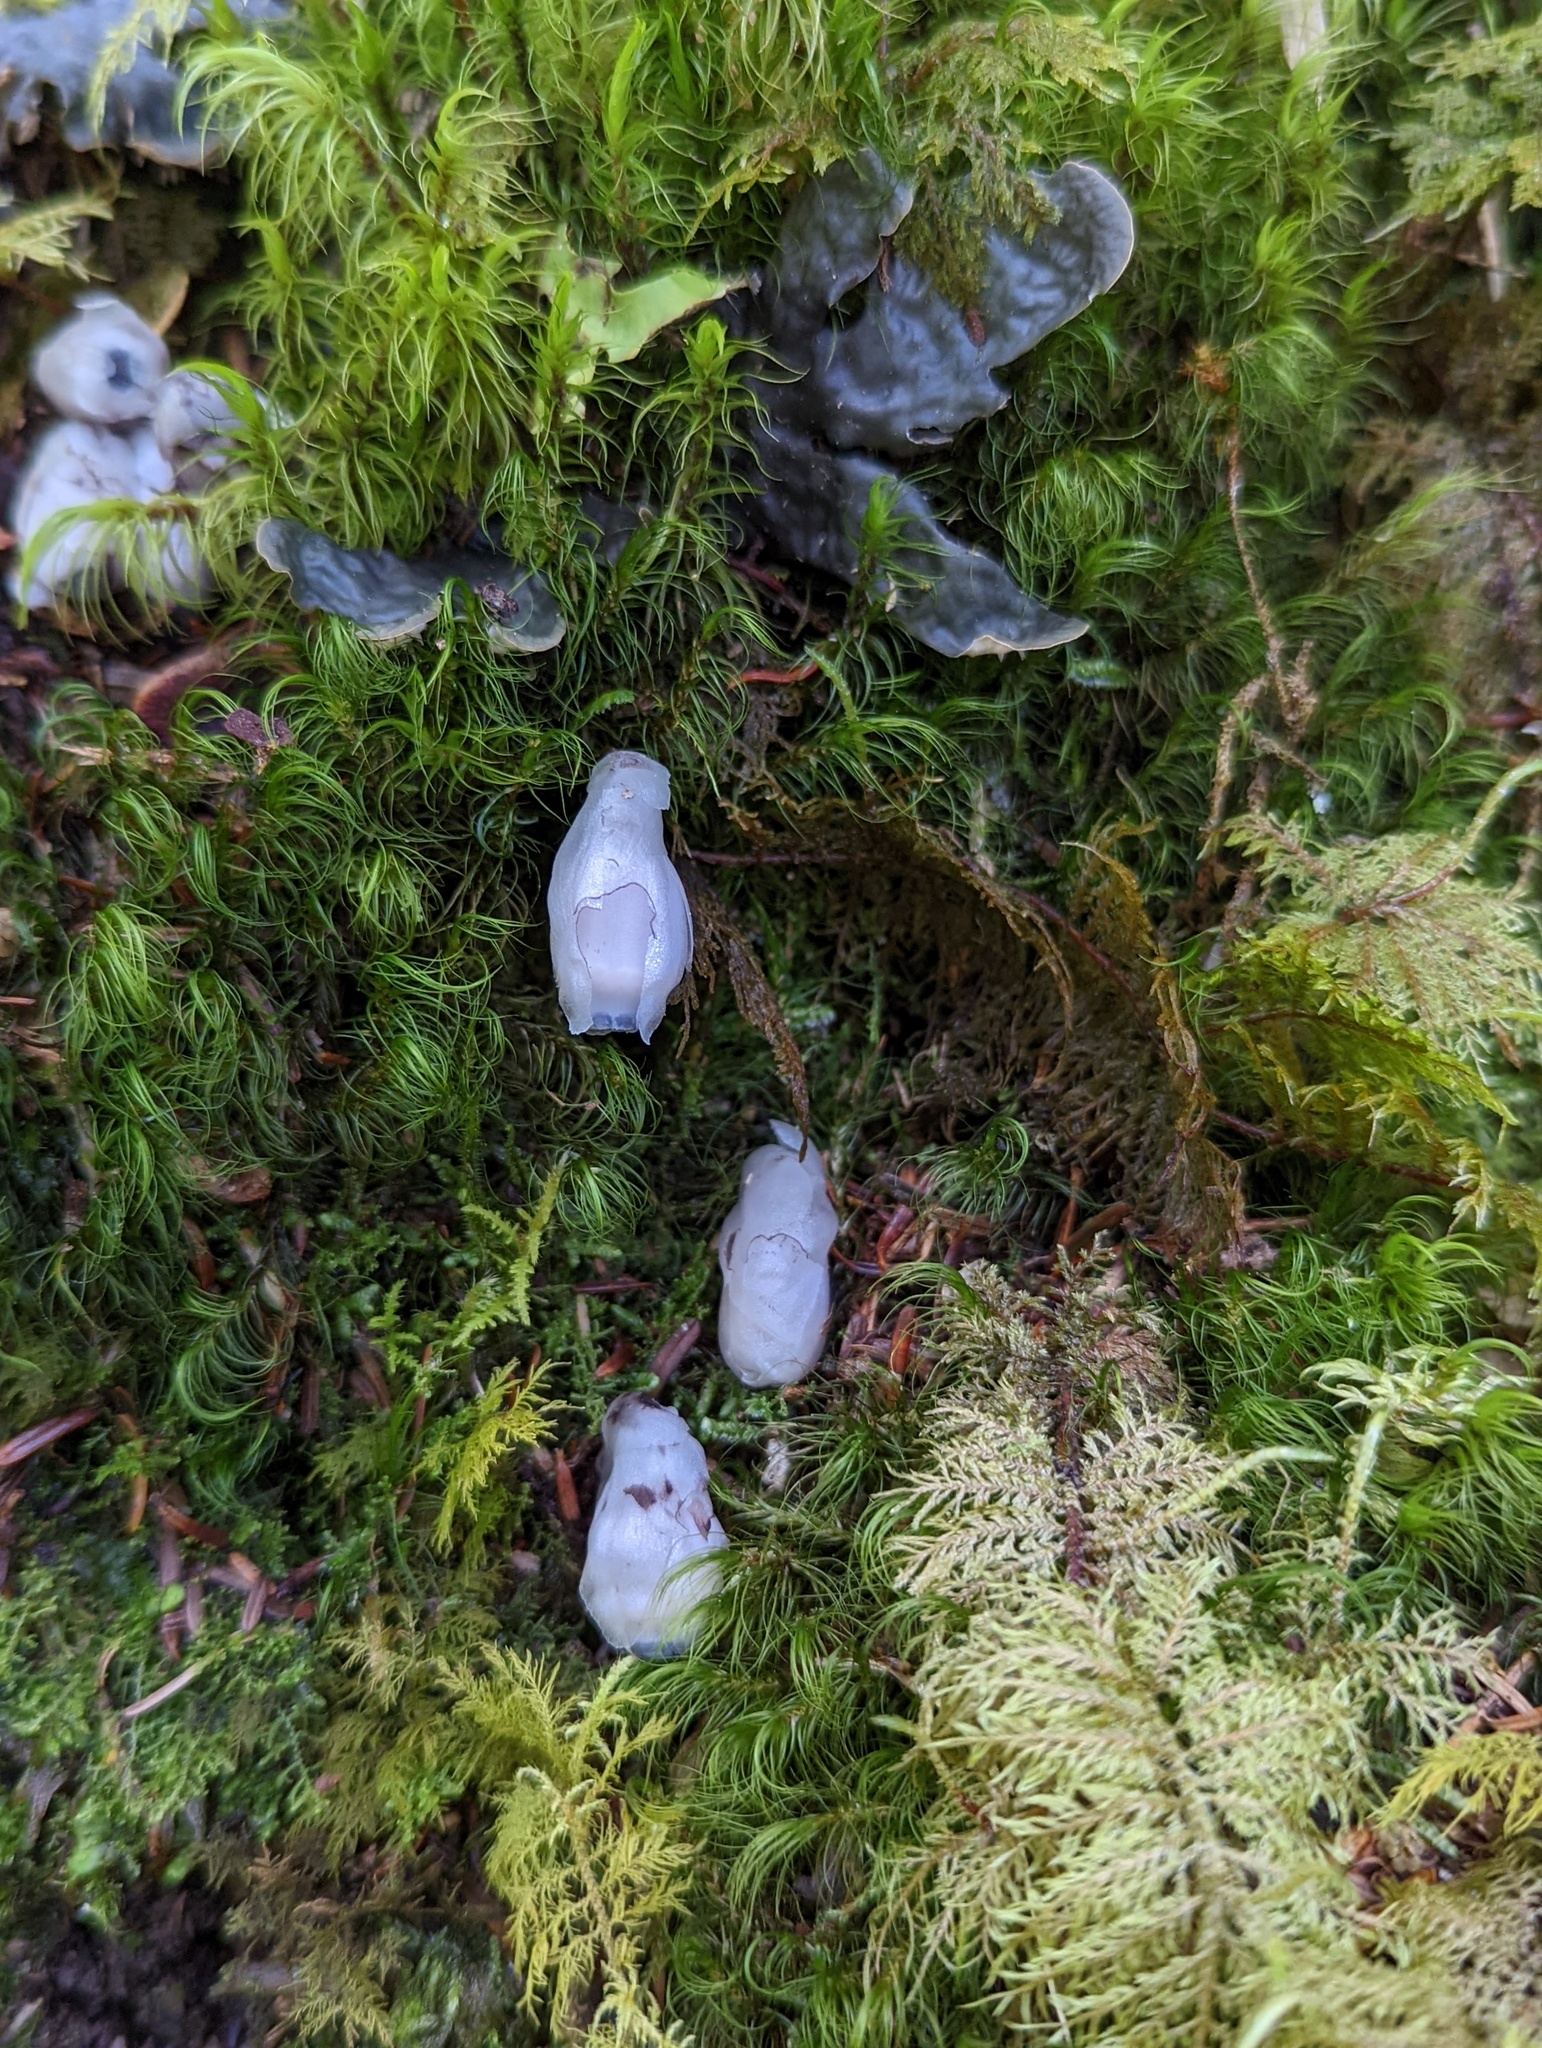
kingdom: Plantae
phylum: Tracheophyta
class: Magnoliopsida
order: Ericales
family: Ericaceae
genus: Monotropastrum
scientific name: Monotropastrum humile
